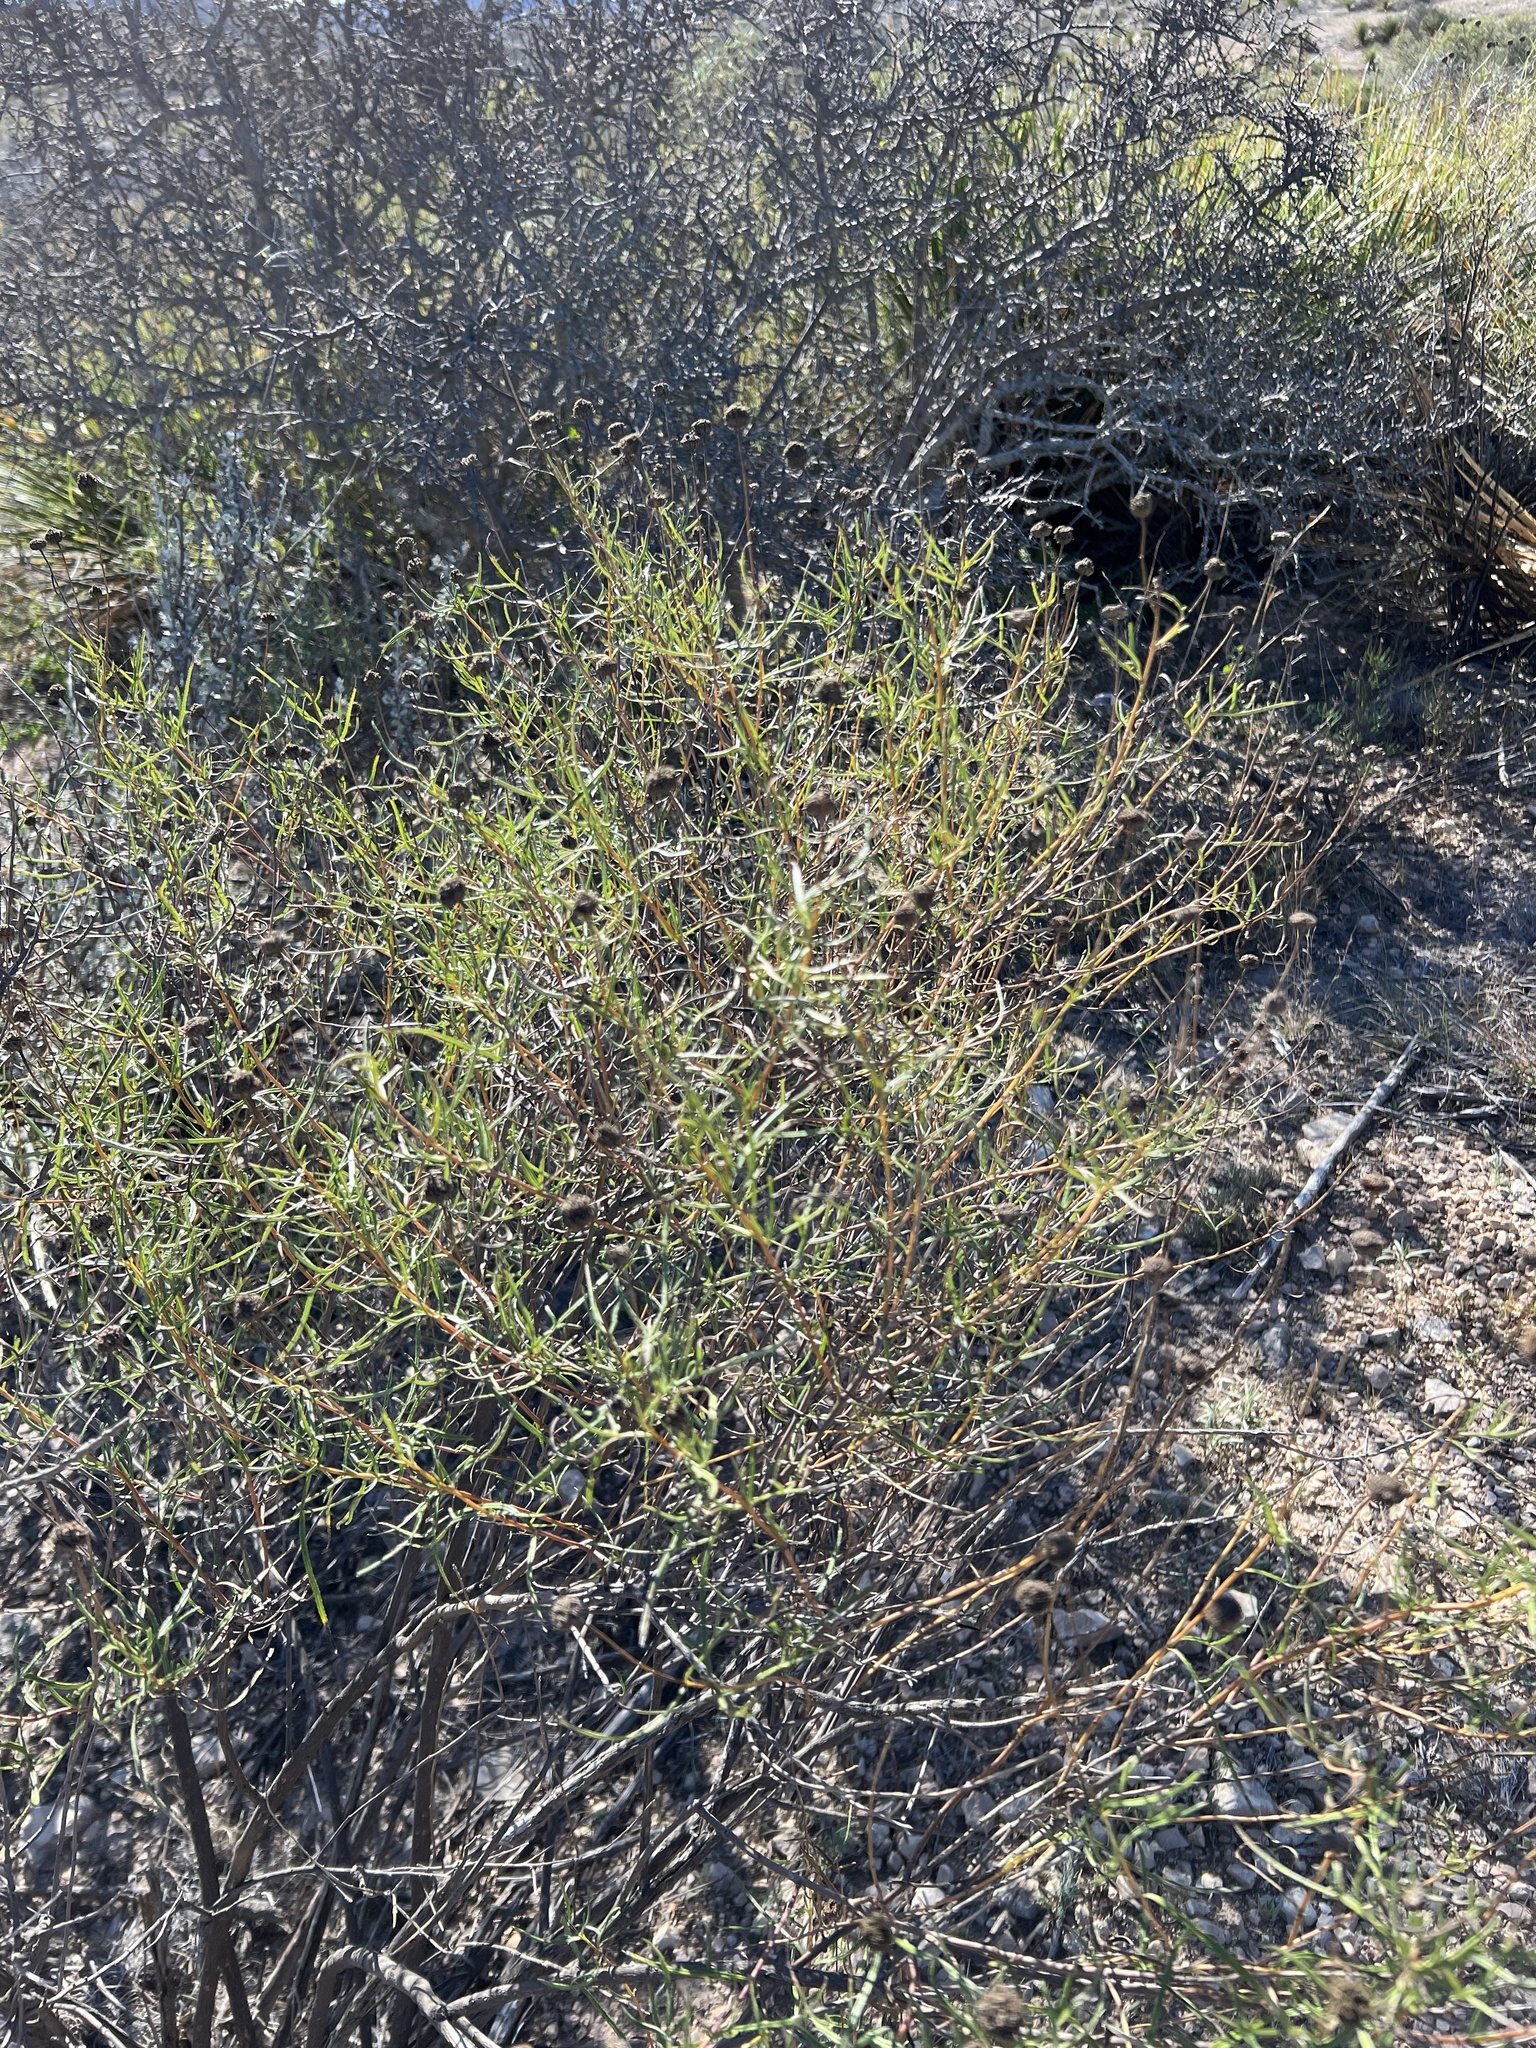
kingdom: Plantae
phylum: Tracheophyta
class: Magnoliopsida
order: Asterales
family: Asteraceae
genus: Sidneya
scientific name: Sidneya tenuifolia
